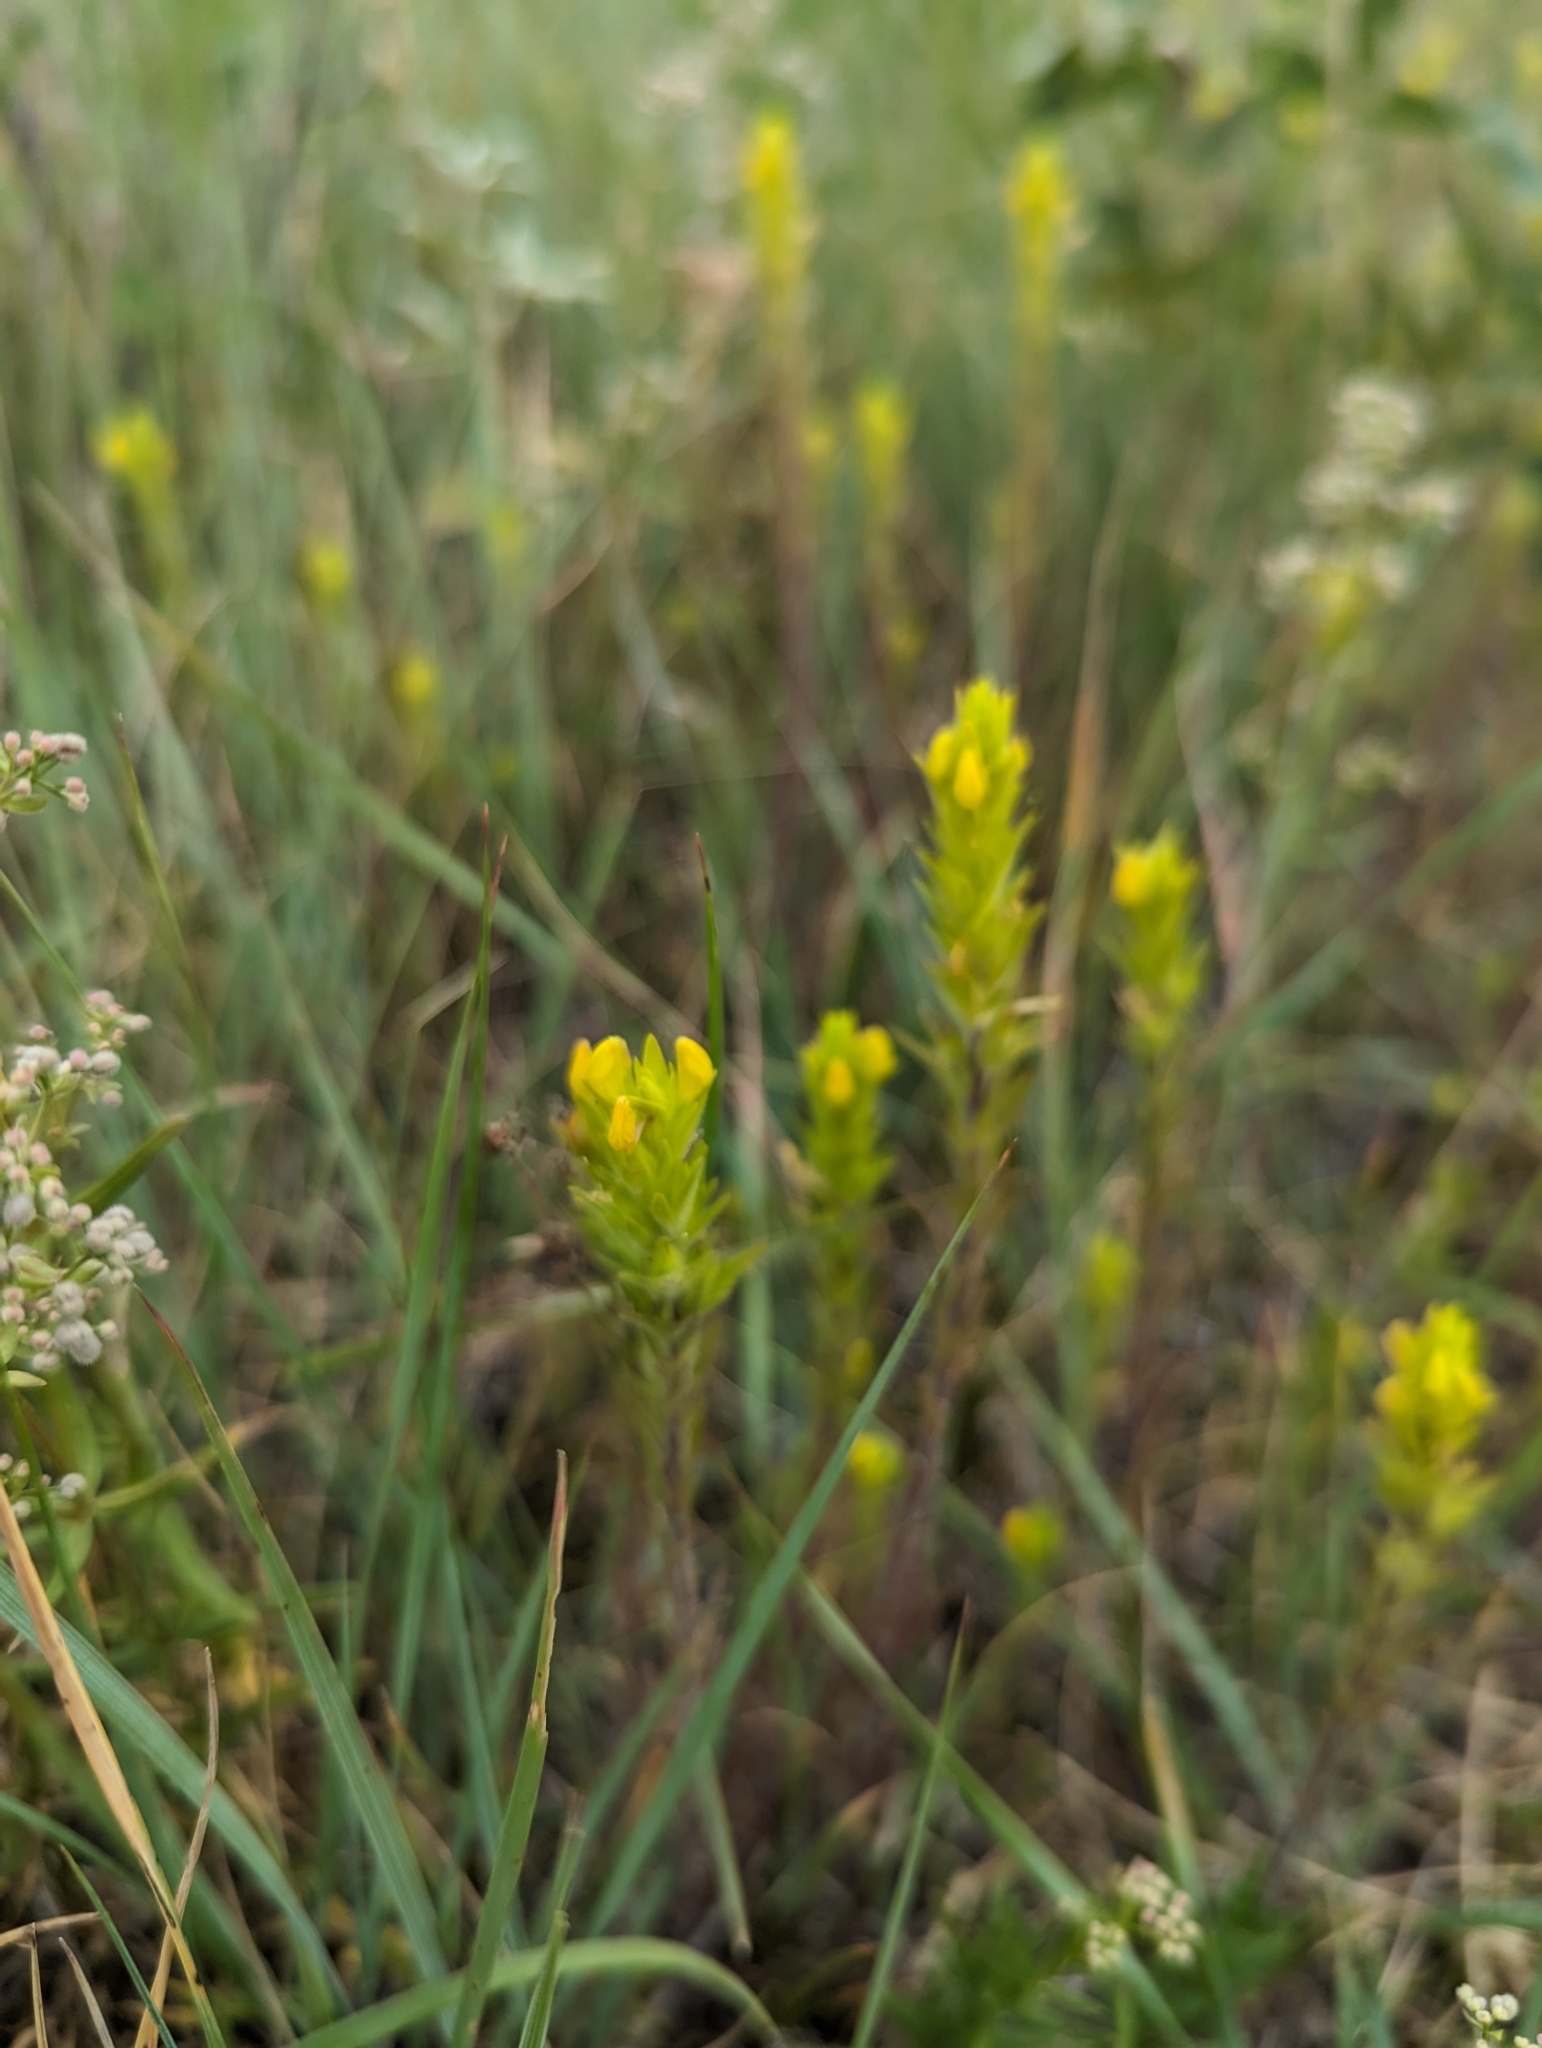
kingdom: Plantae
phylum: Tracheophyta
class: Magnoliopsida
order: Lamiales
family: Orobanchaceae
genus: Orthocarpus
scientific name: Orthocarpus luteus
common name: Golden-tongue owl's-clover
